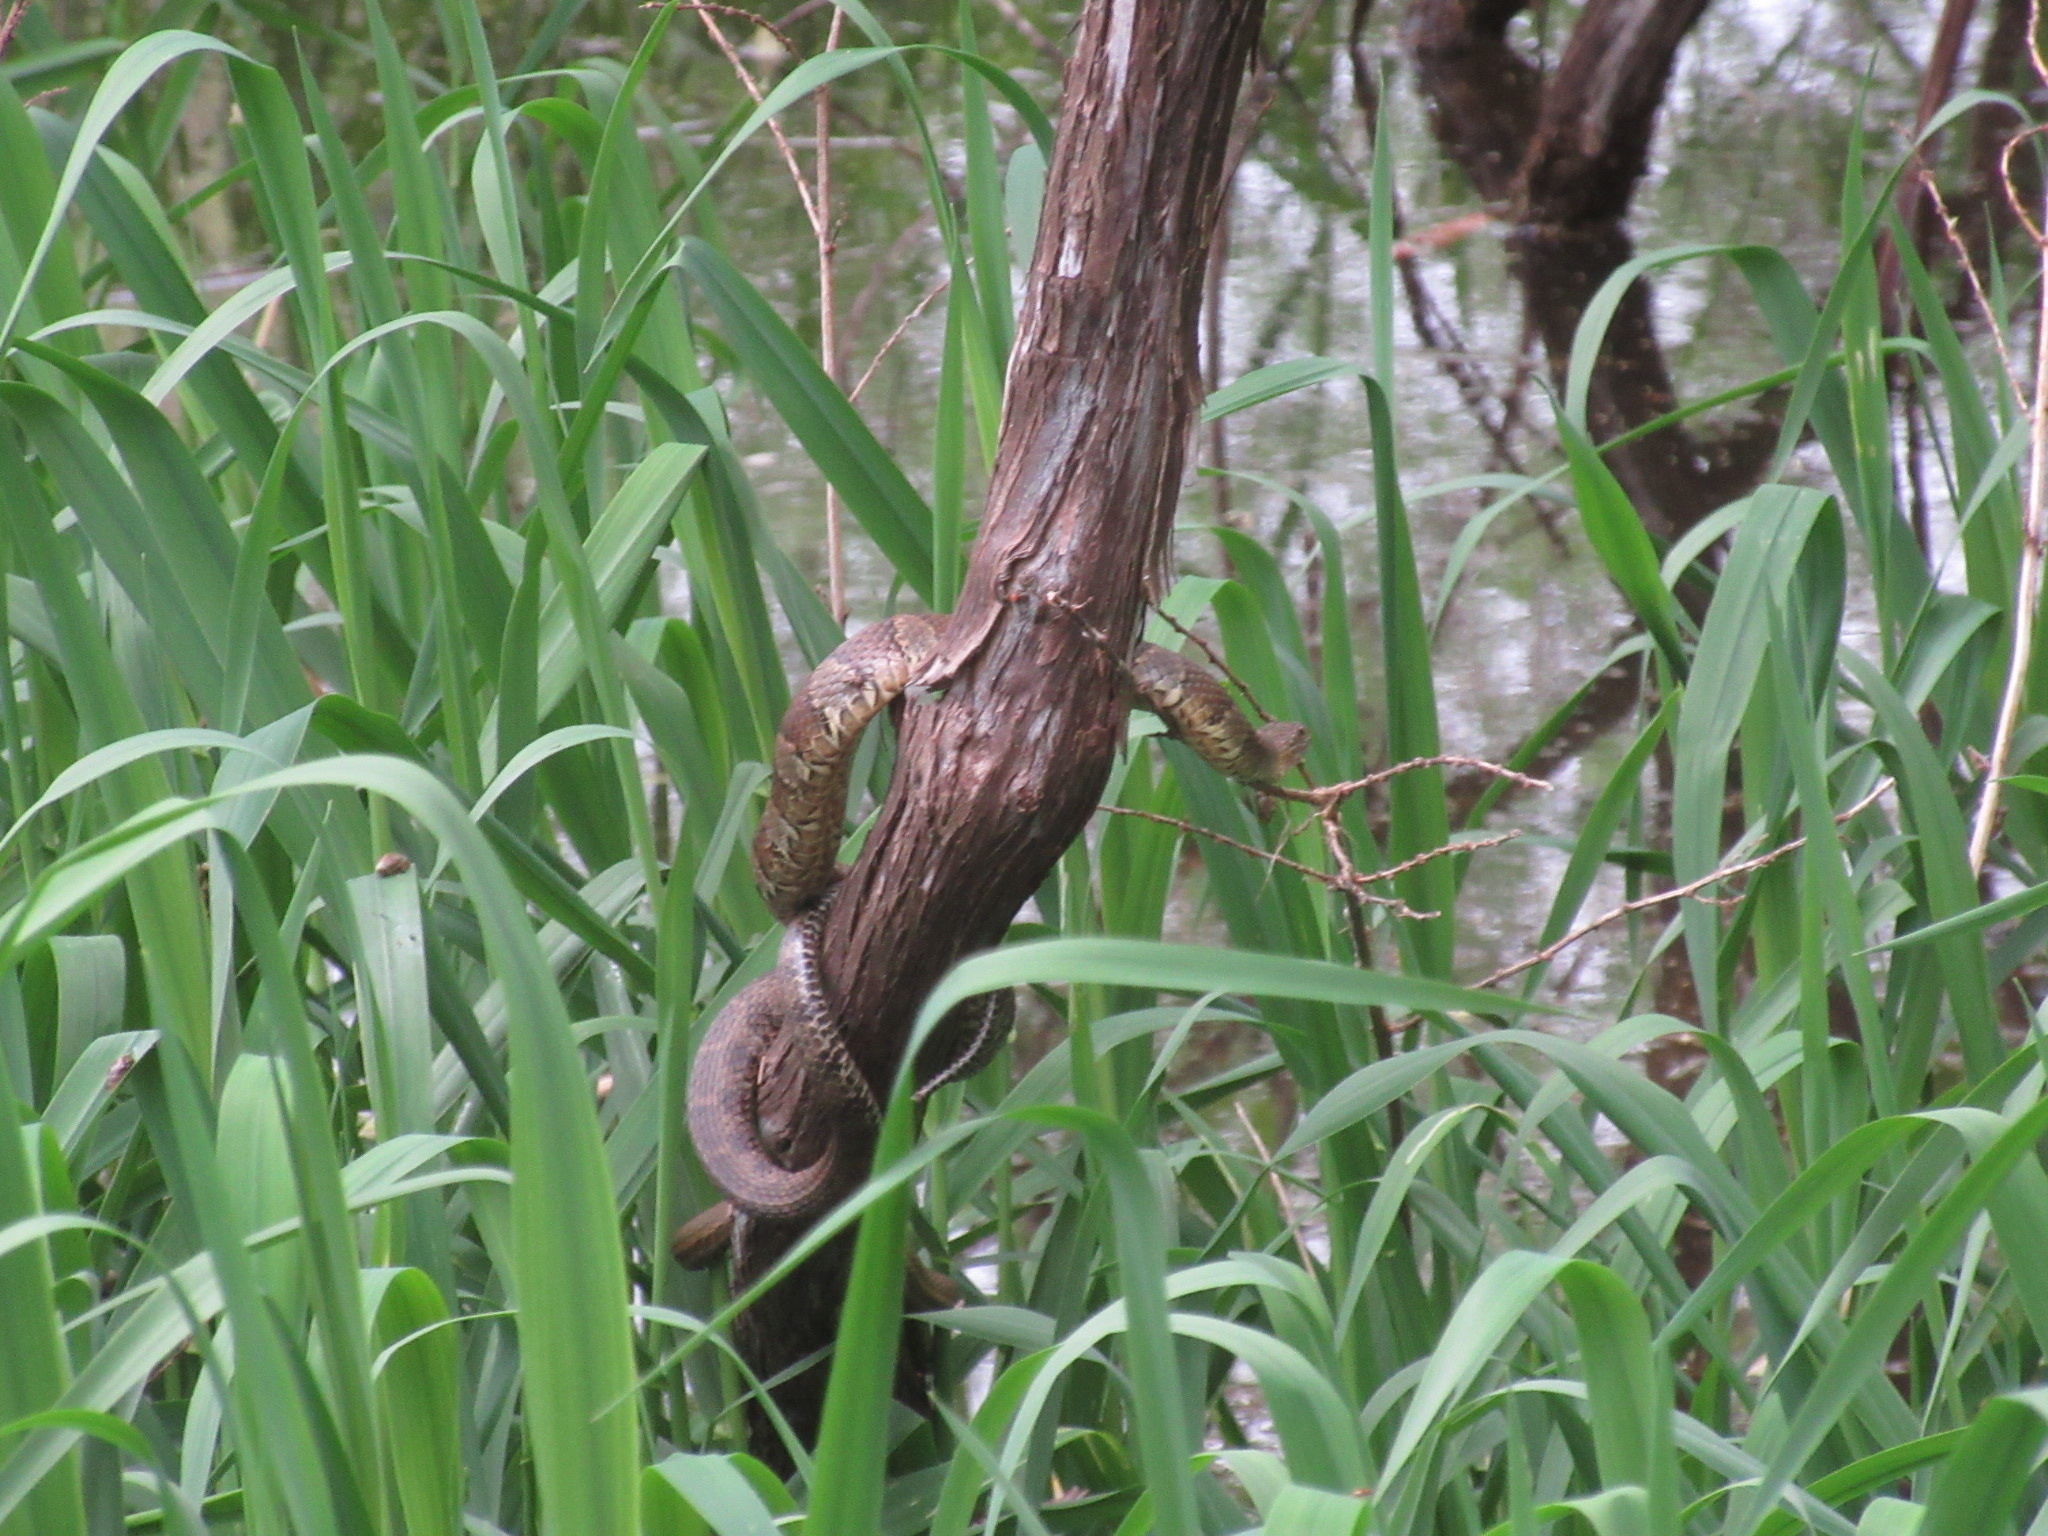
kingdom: Animalia
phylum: Chordata
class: Squamata
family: Colubridae
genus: Nerodia
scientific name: Nerodia sipedon
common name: Northern water snake
